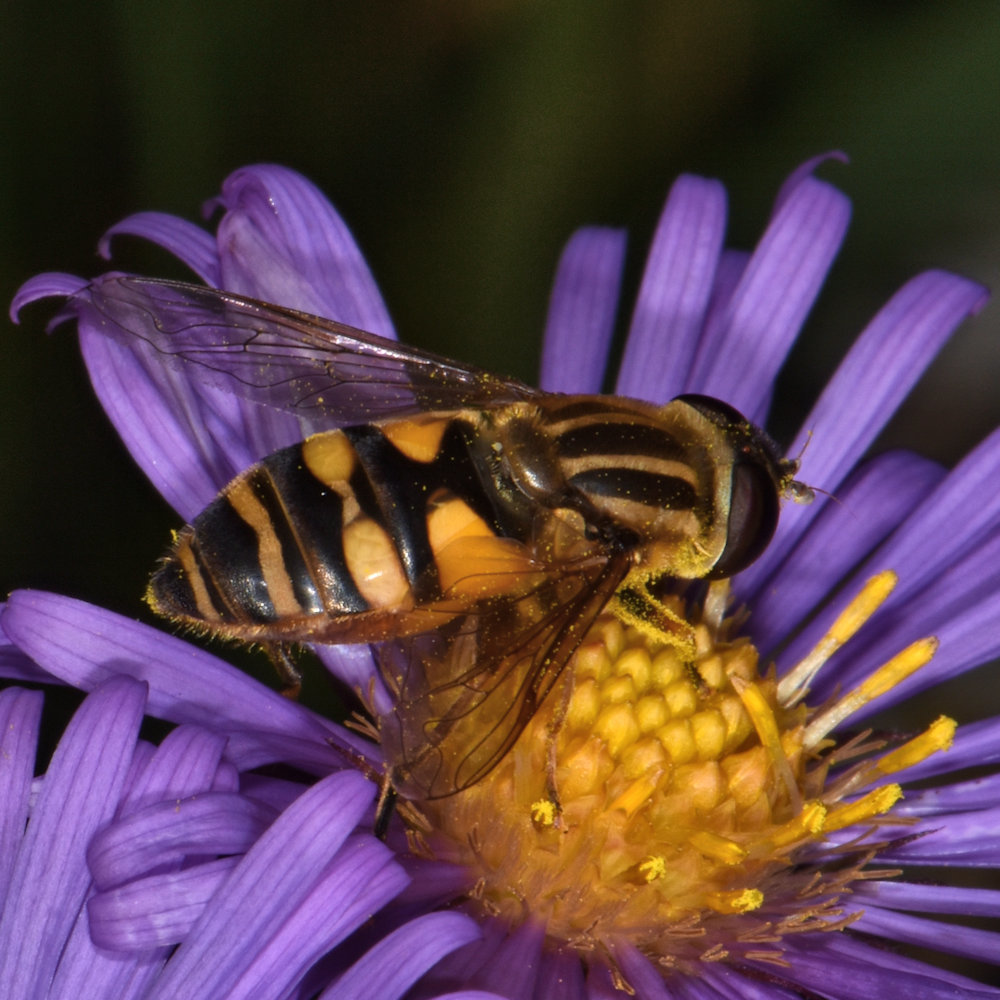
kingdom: Animalia
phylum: Arthropoda
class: Insecta
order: Diptera
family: Syrphidae
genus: Helophilus
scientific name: Helophilus fasciatus
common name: Narrow-headed marsh fly
